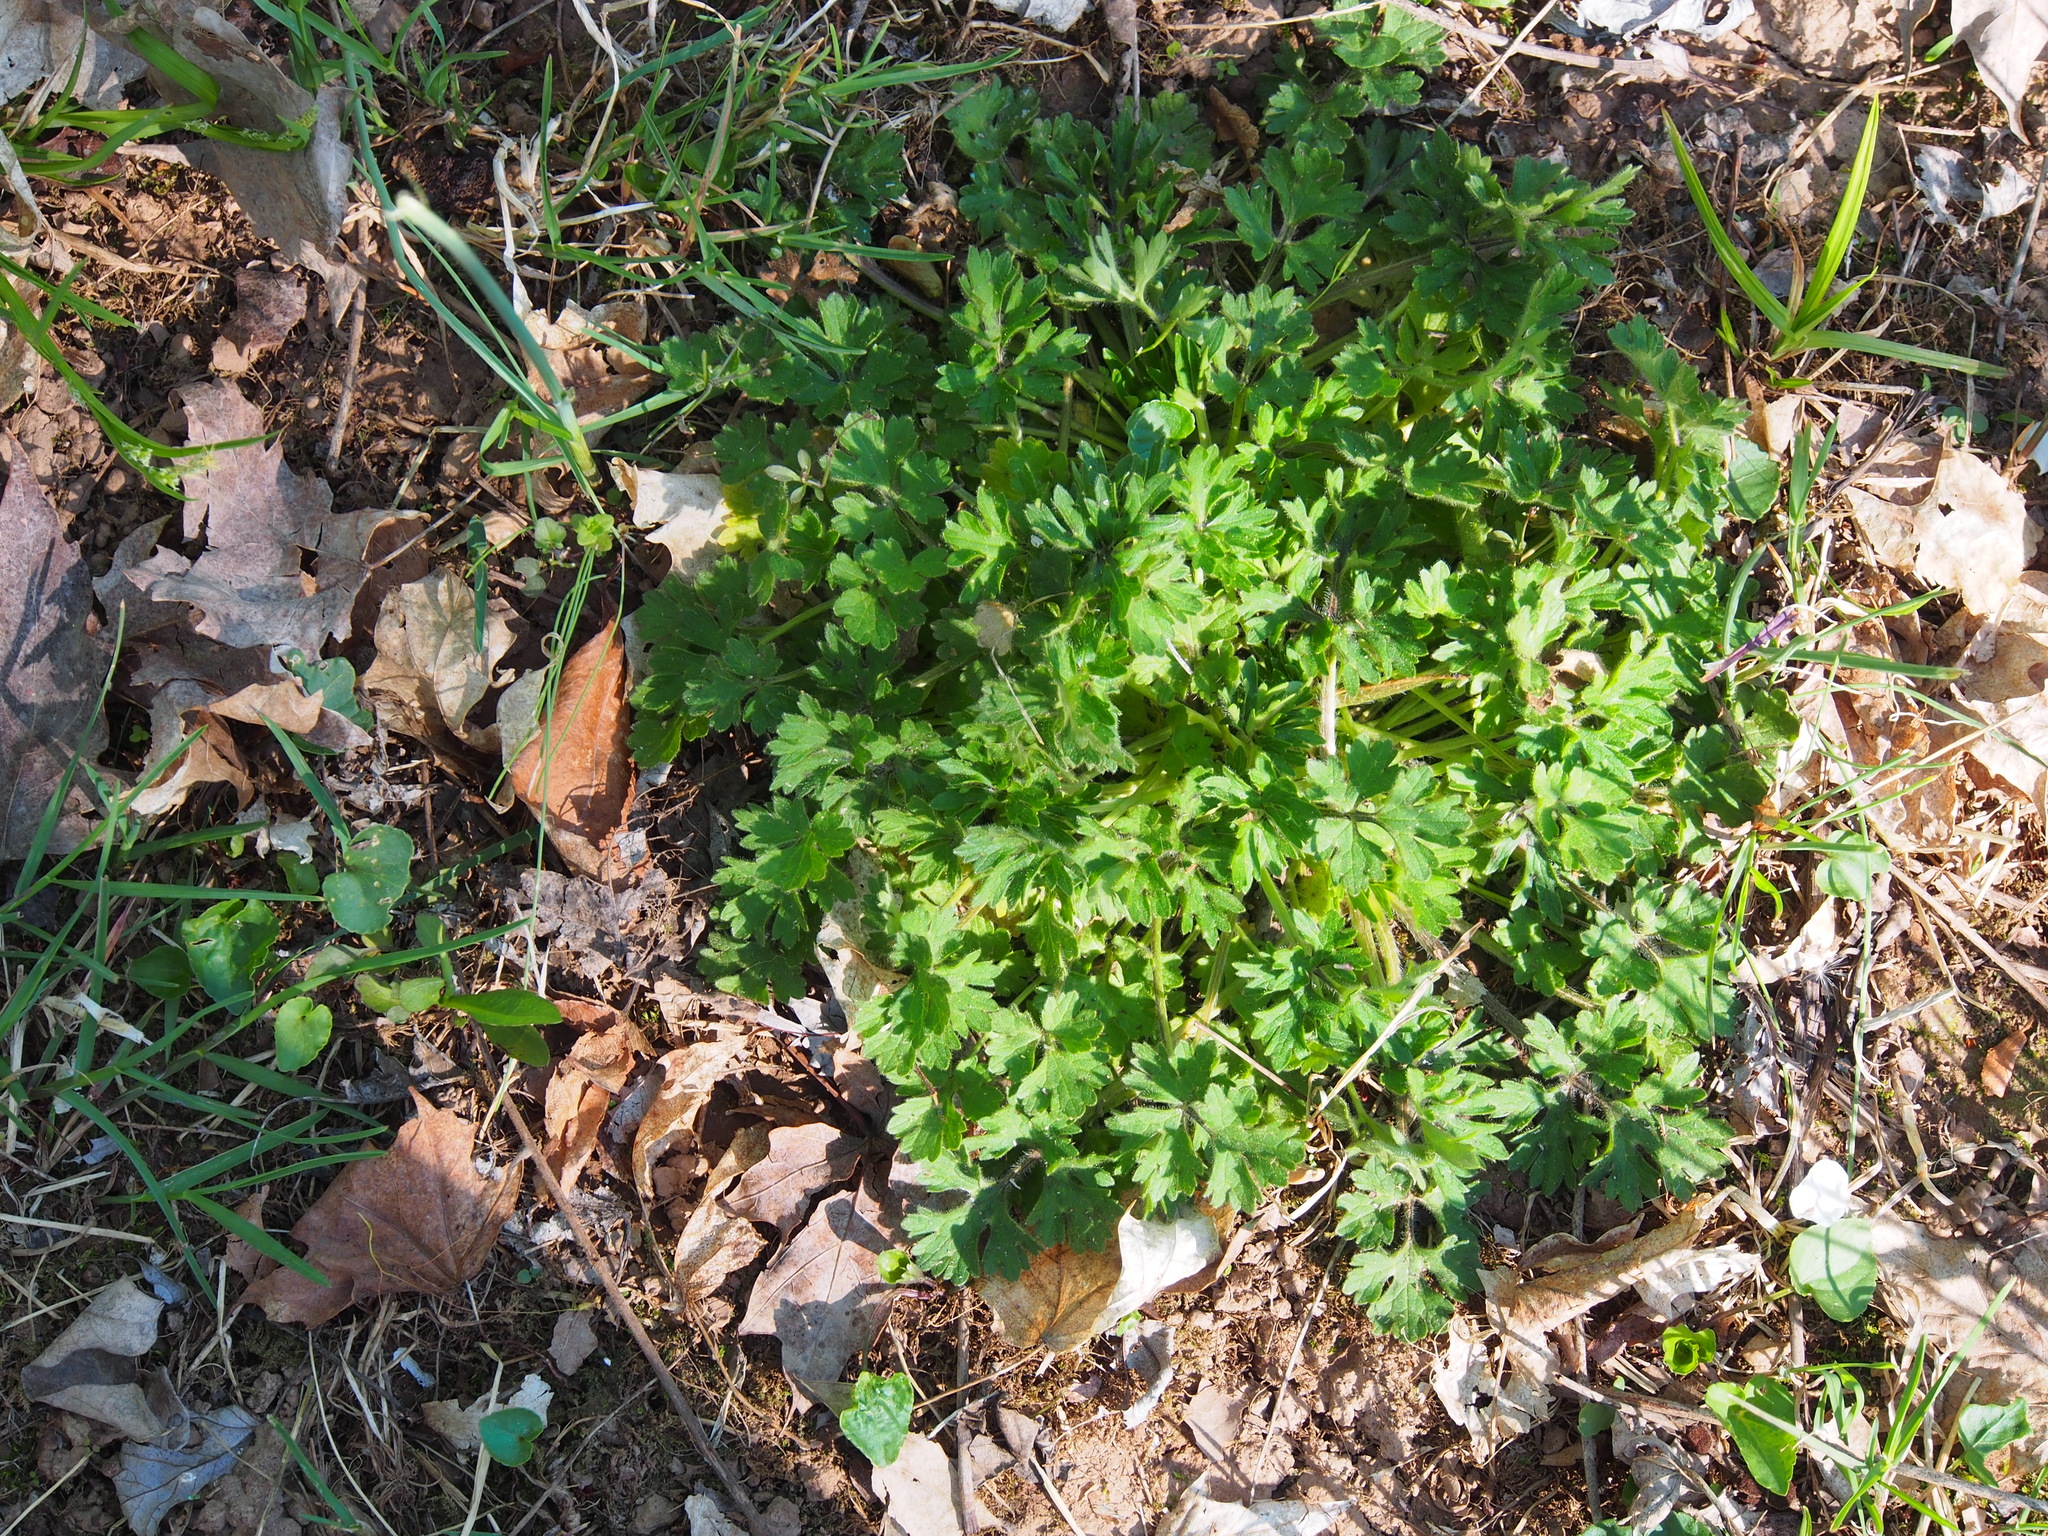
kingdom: Plantae
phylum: Tracheophyta
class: Magnoliopsida
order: Ranunculales
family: Ranunculaceae
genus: Ranunculus
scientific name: Ranunculus bulbosus
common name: Bulbous buttercup
